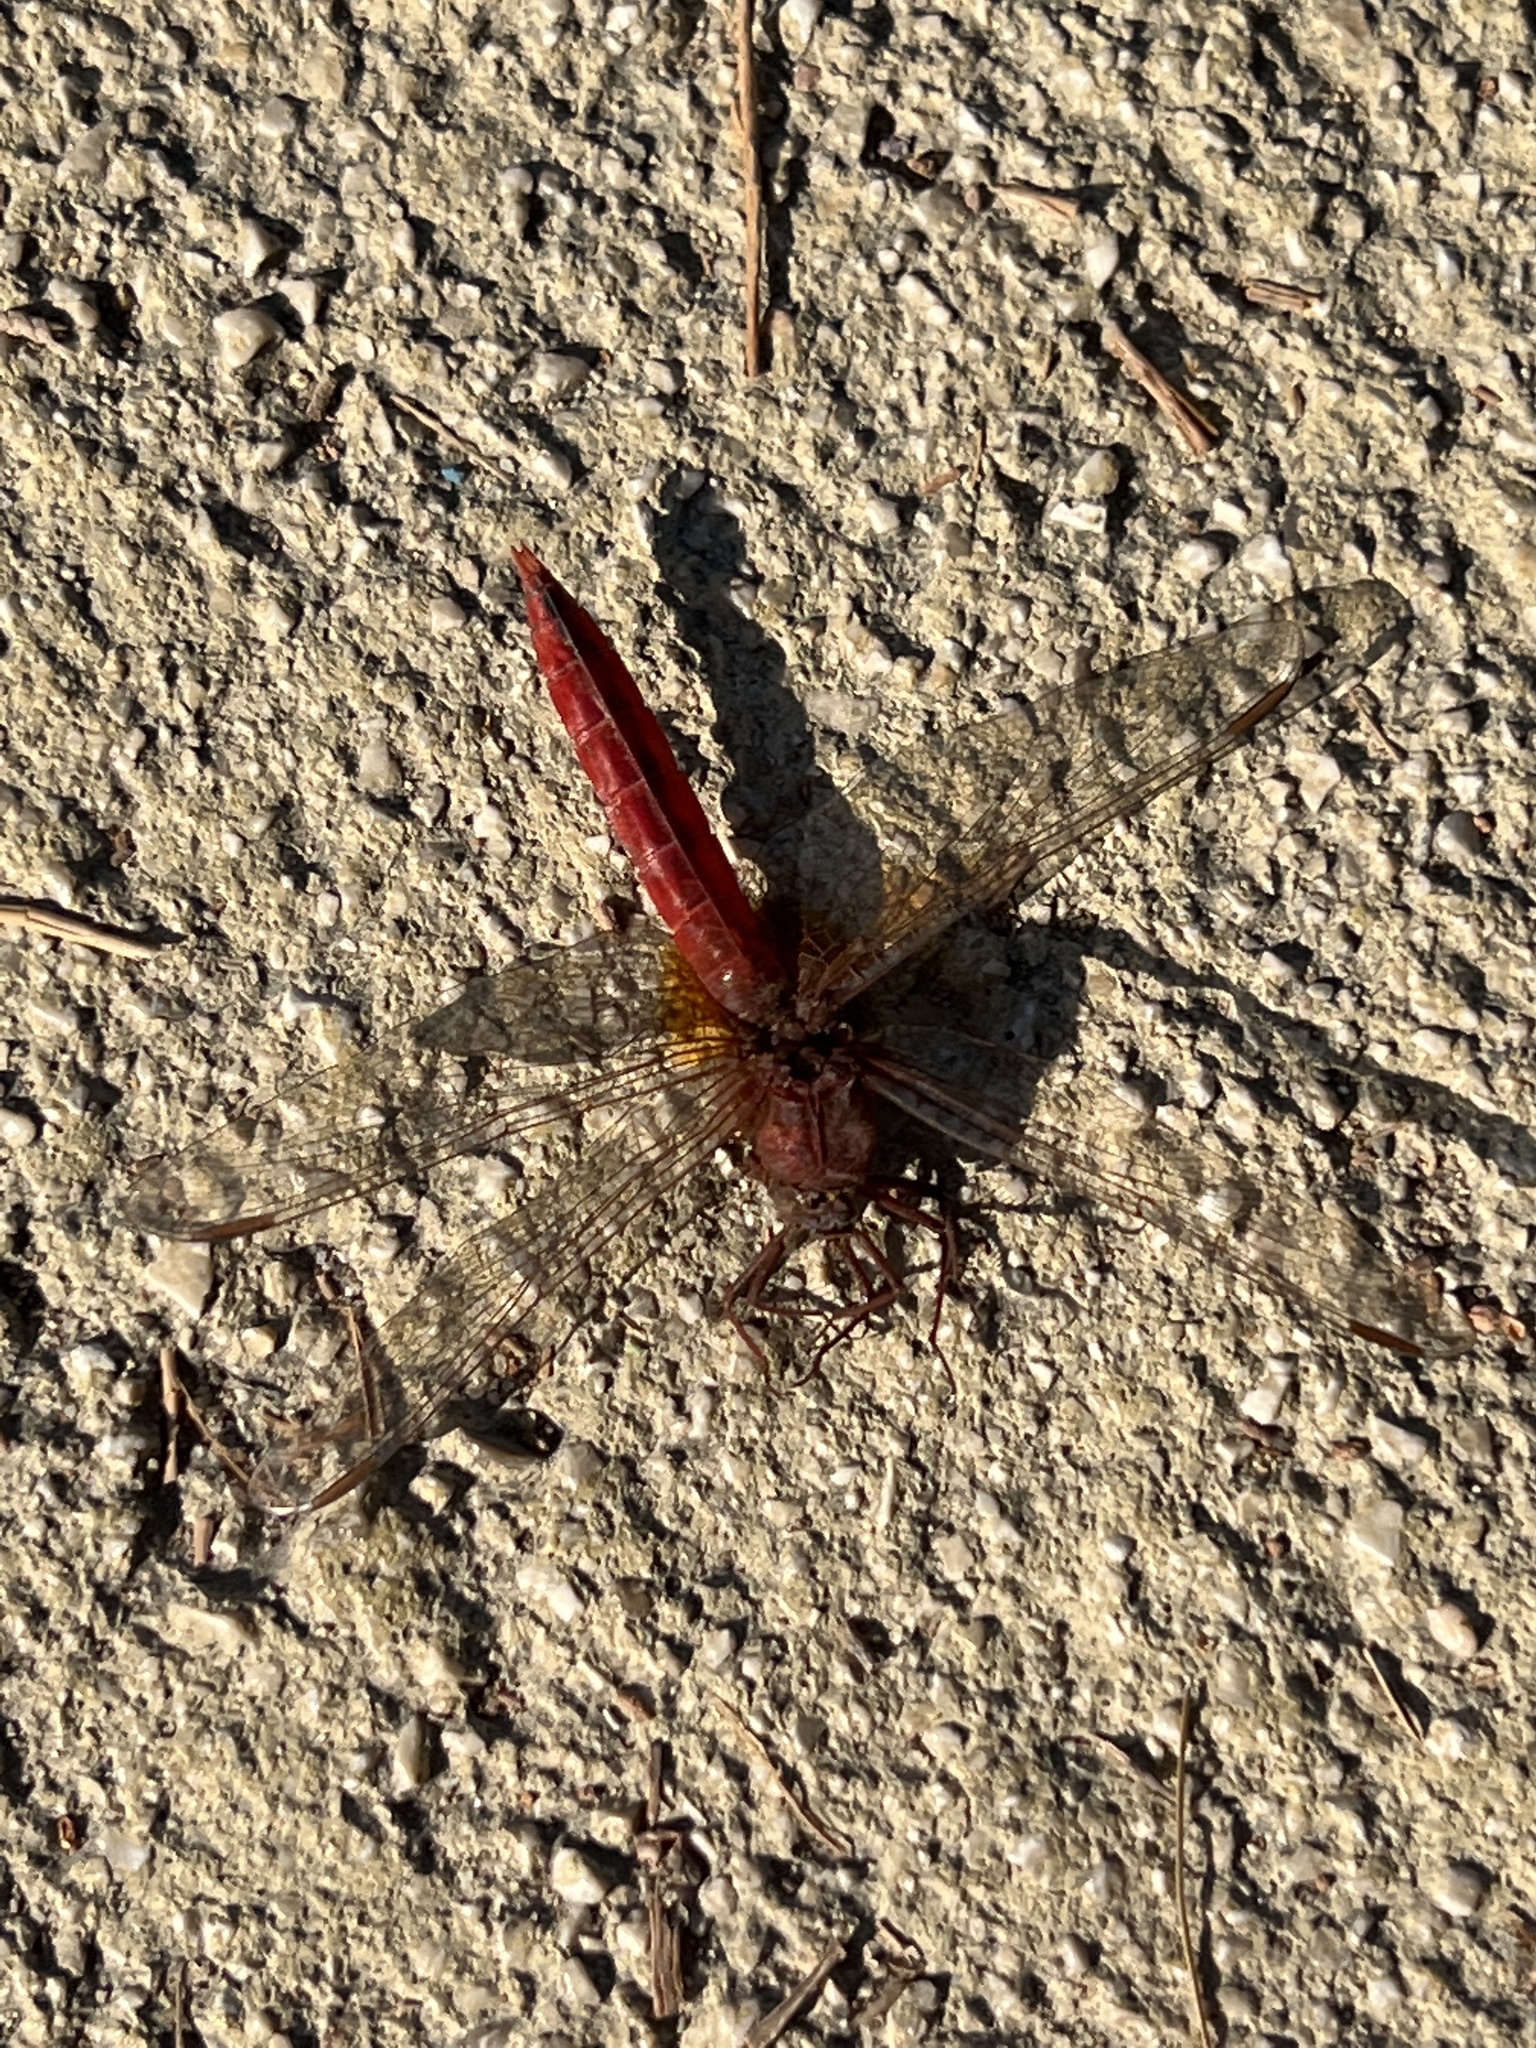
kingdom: Animalia
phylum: Arthropoda
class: Insecta
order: Odonata
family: Libellulidae
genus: Crocothemis
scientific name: Crocothemis erythraea
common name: Scarlet dragonfly
